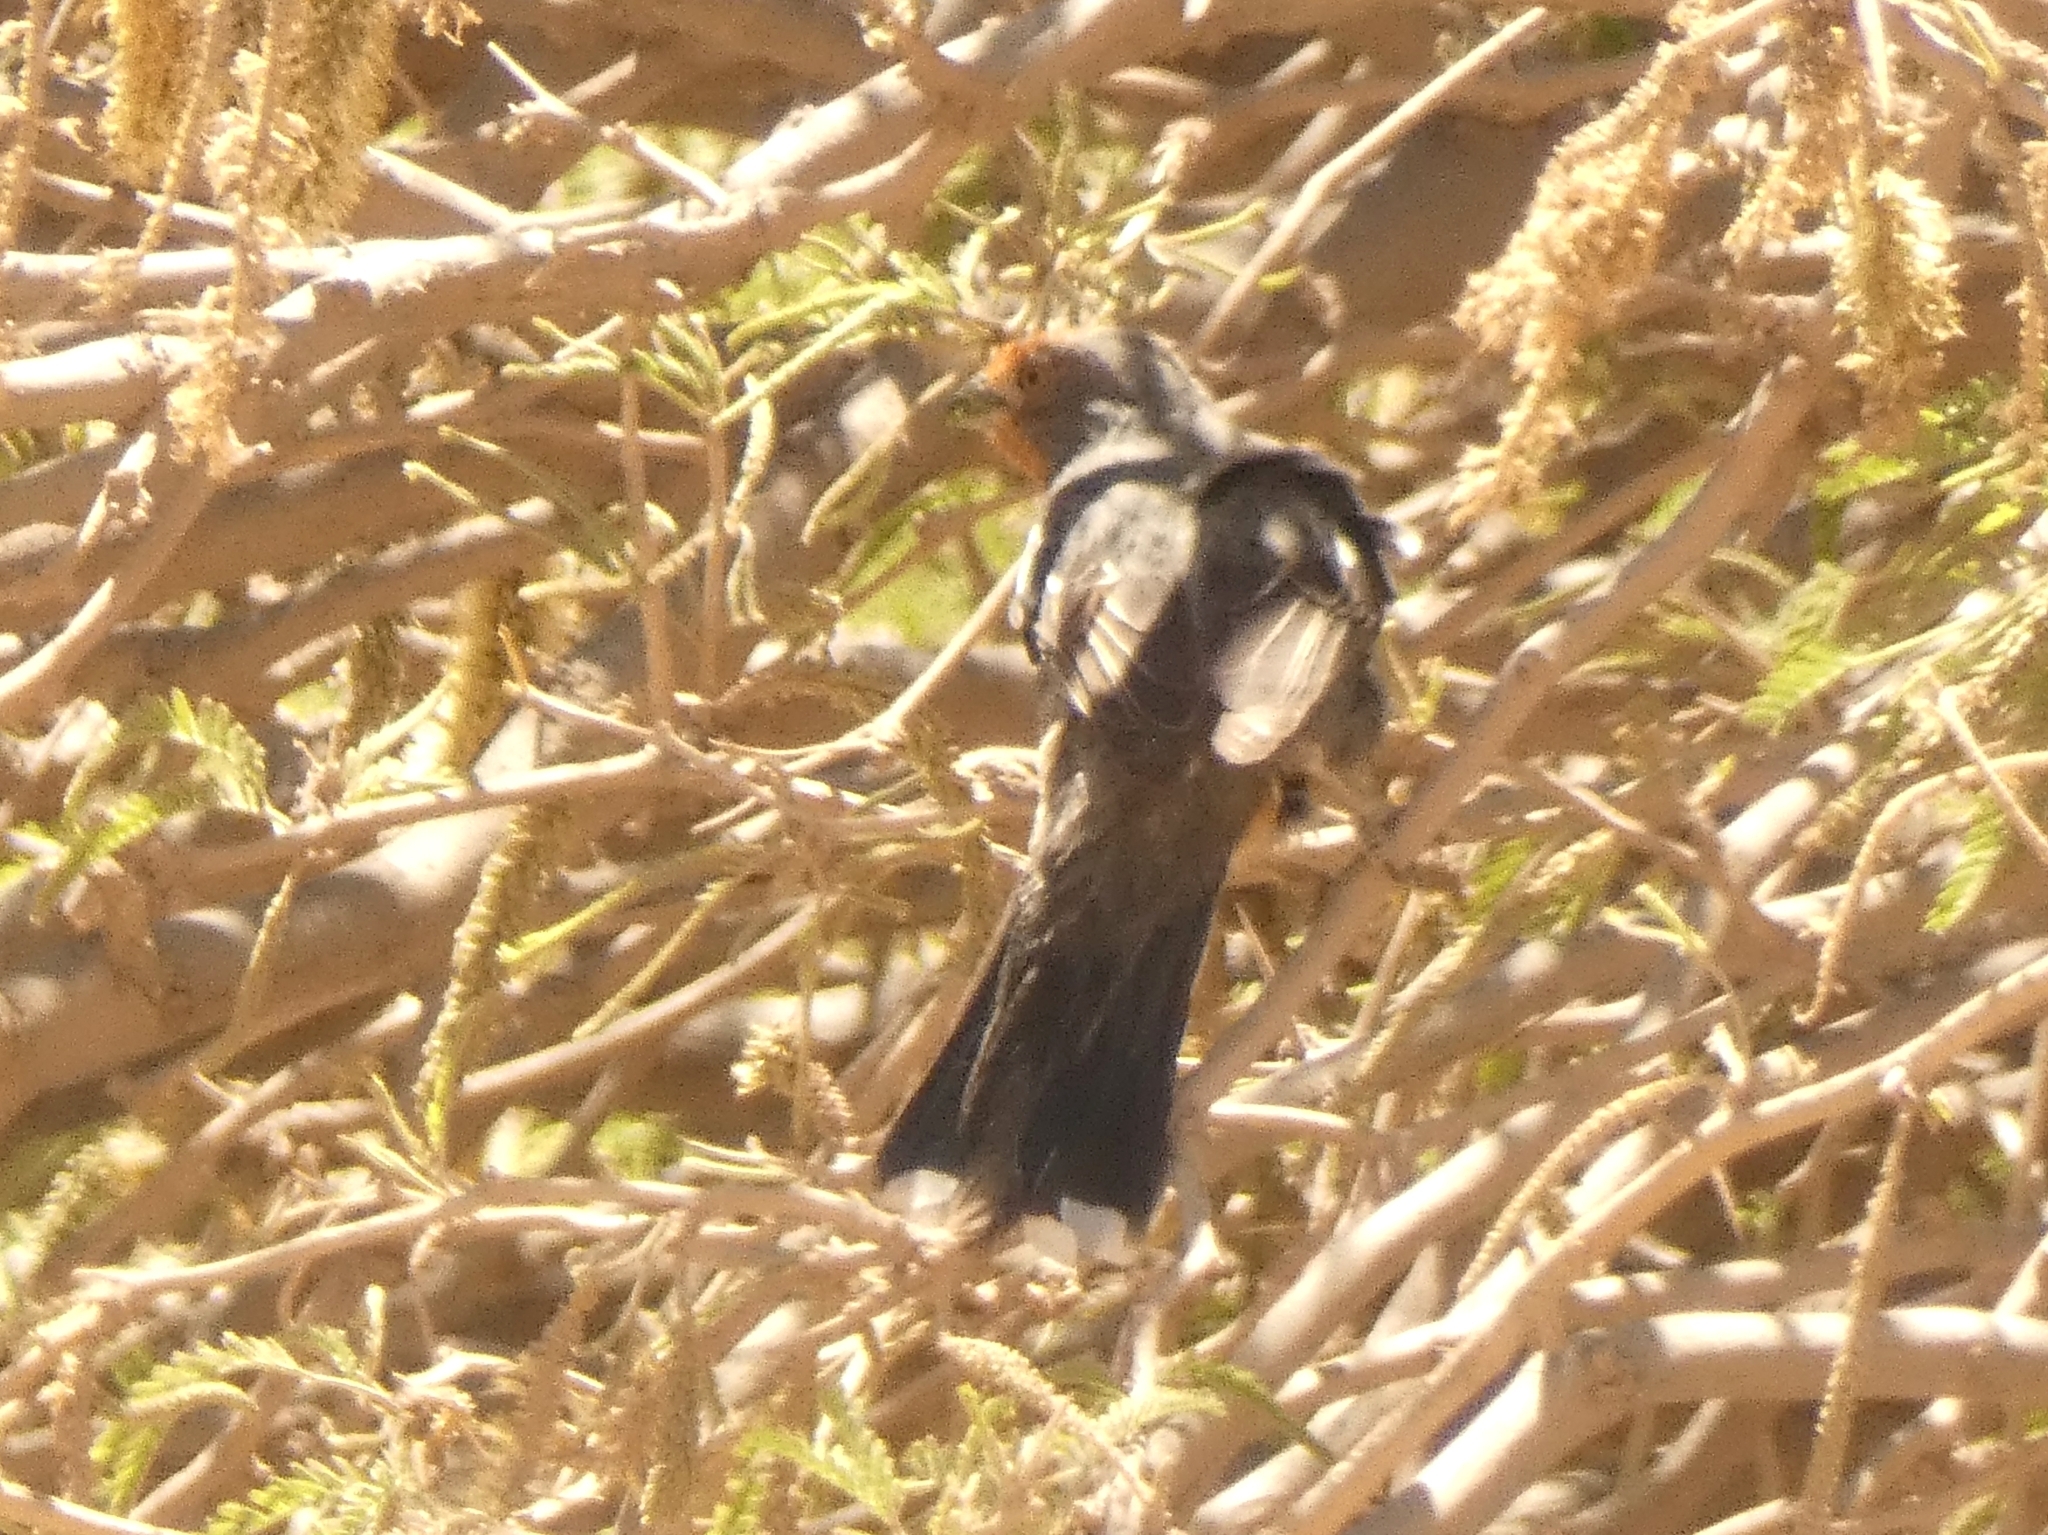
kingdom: Animalia
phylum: Chordata
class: Aves
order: Passeriformes
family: Cotingidae
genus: Phytotoma
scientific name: Phytotoma rutila
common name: White-tipped plantcutter
